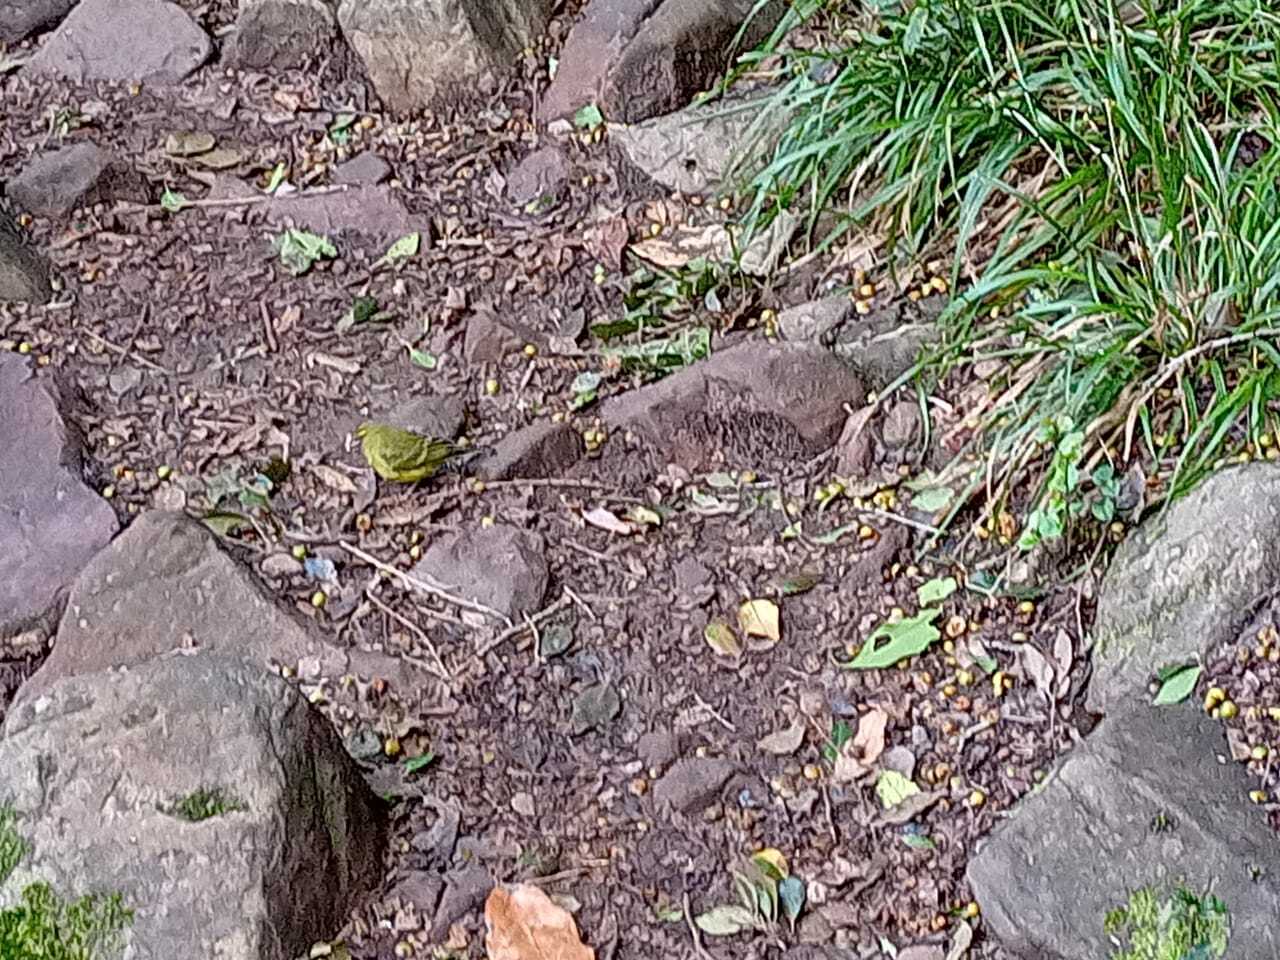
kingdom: Animalia
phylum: Chordata
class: Aves
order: Passeriformes
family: Fringillidae
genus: Crithagra
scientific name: Crithagra scotops
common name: Forest canary
